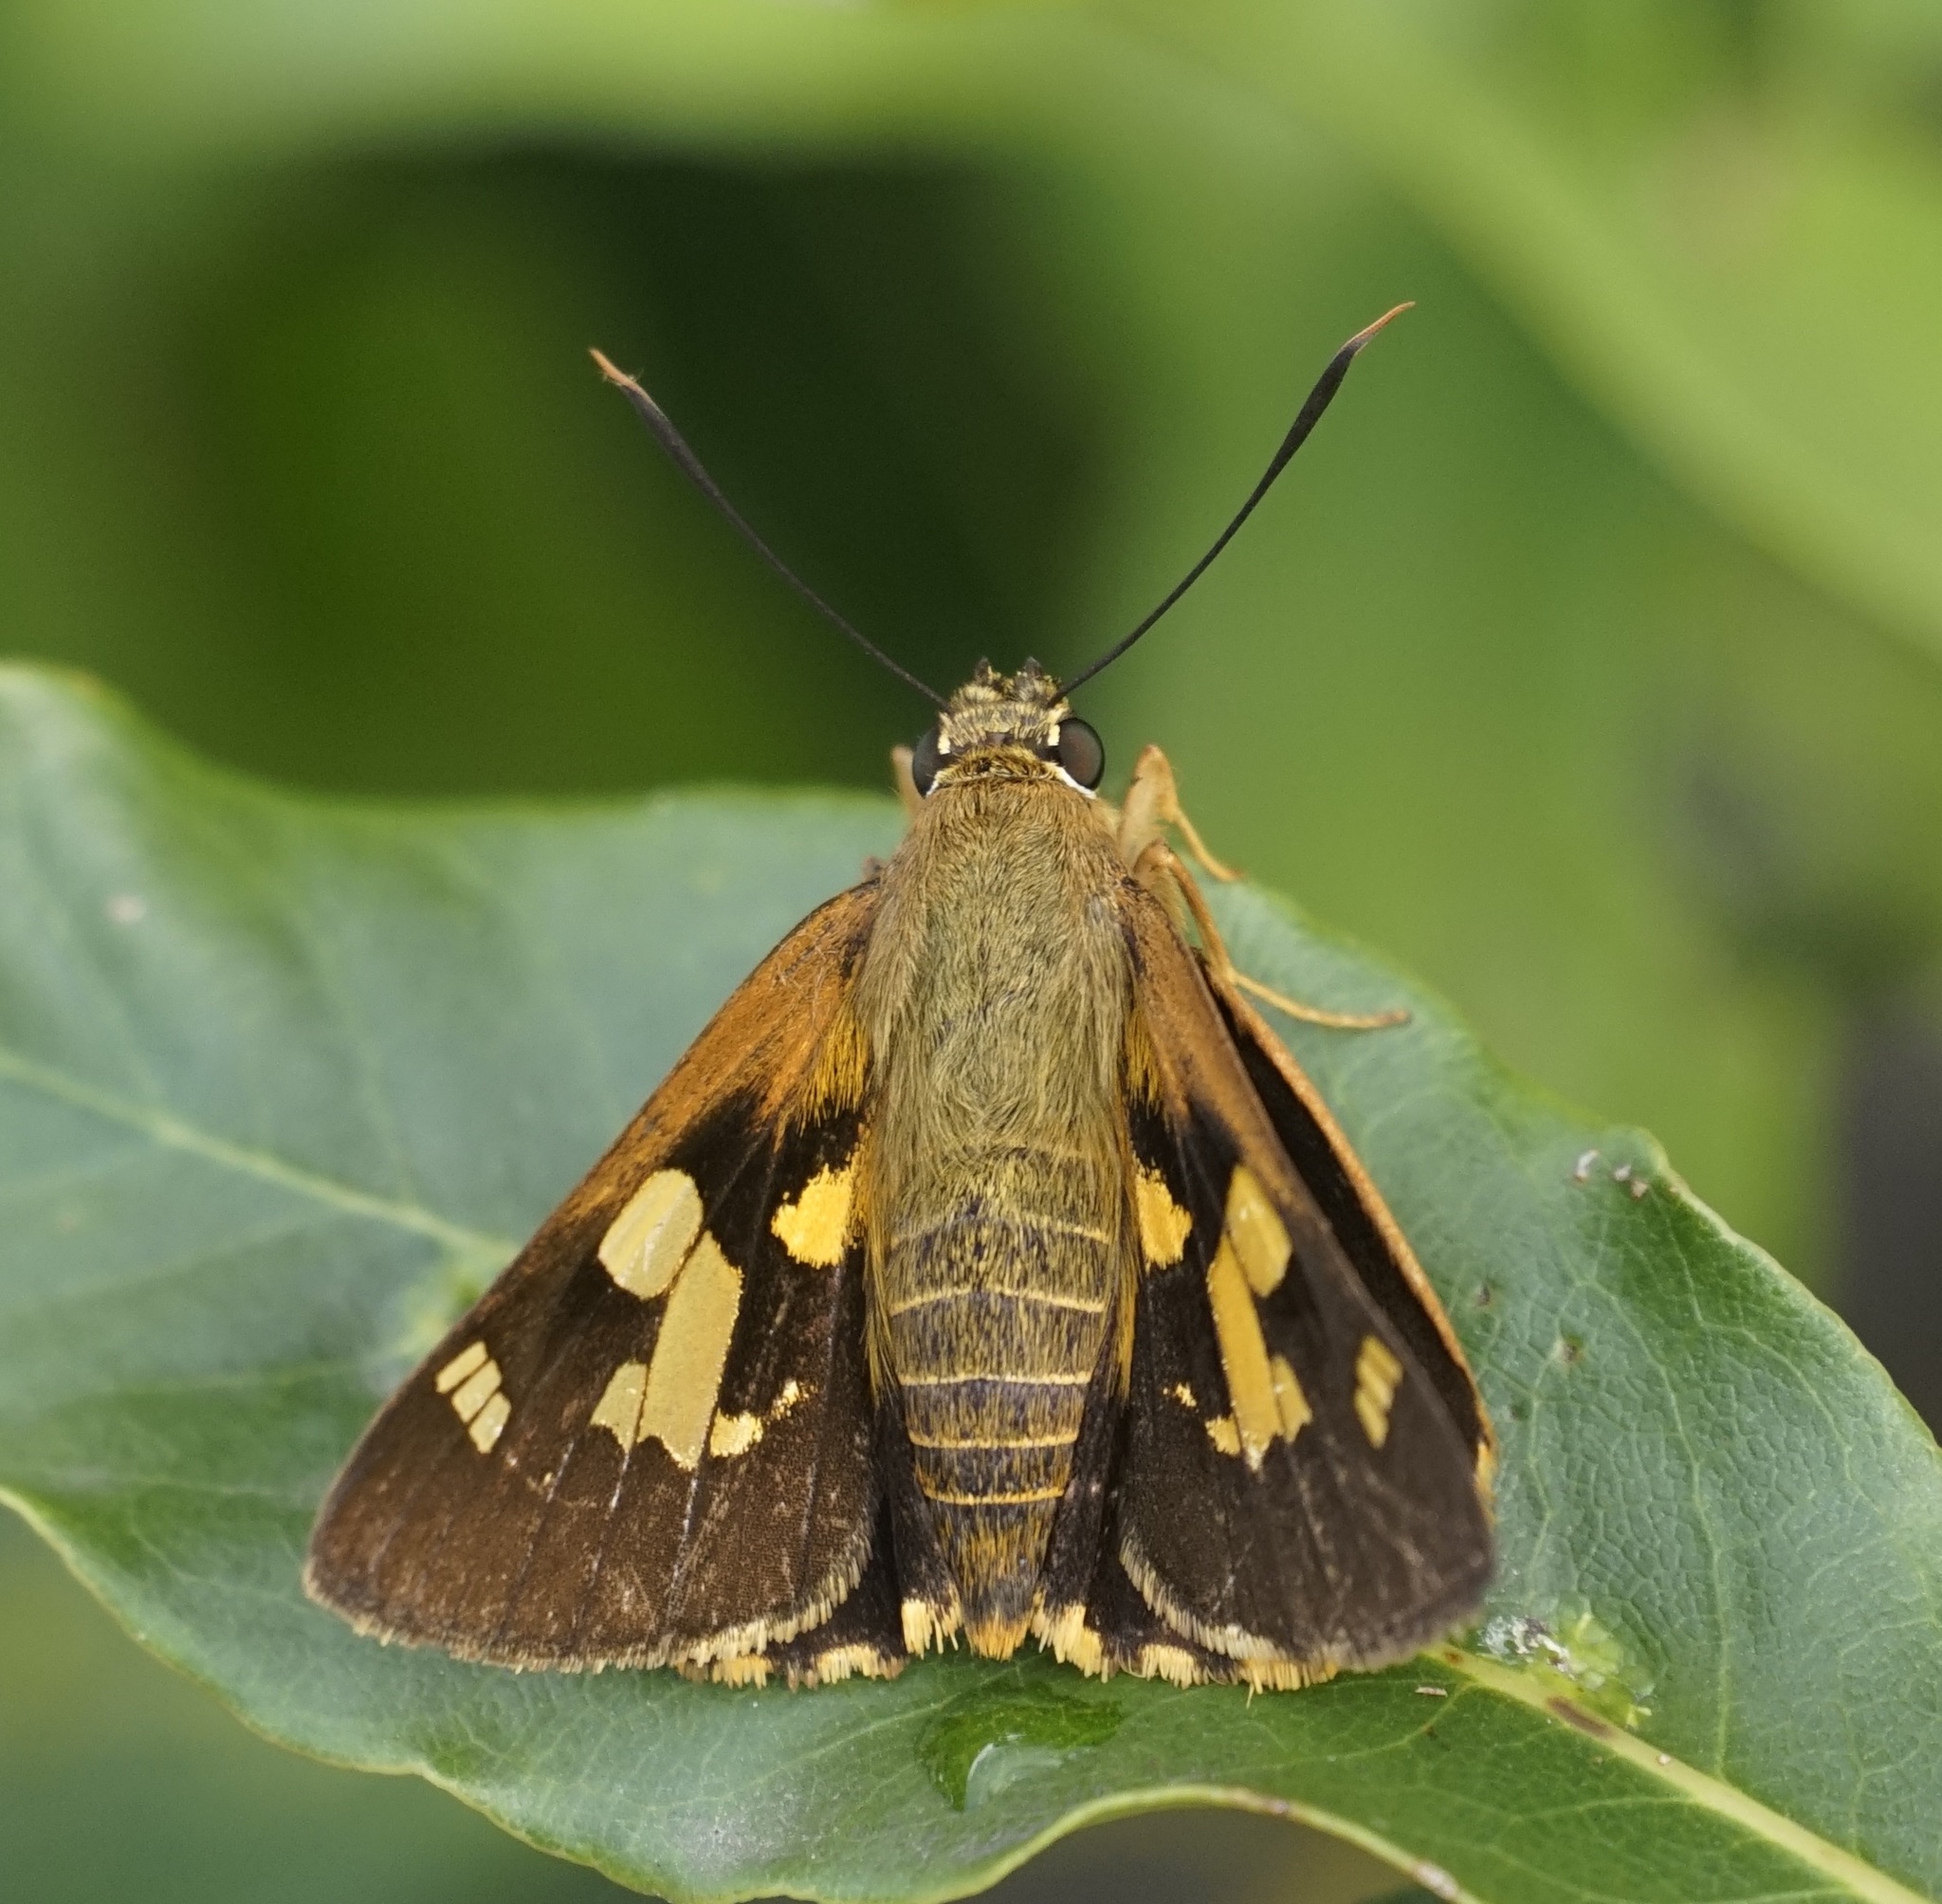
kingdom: Animalia
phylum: Arthropoda
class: Insecta
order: Lepidoptera
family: Hesperiidae
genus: Trapezites
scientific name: Trapezites symmomus
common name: Splendid ochre
